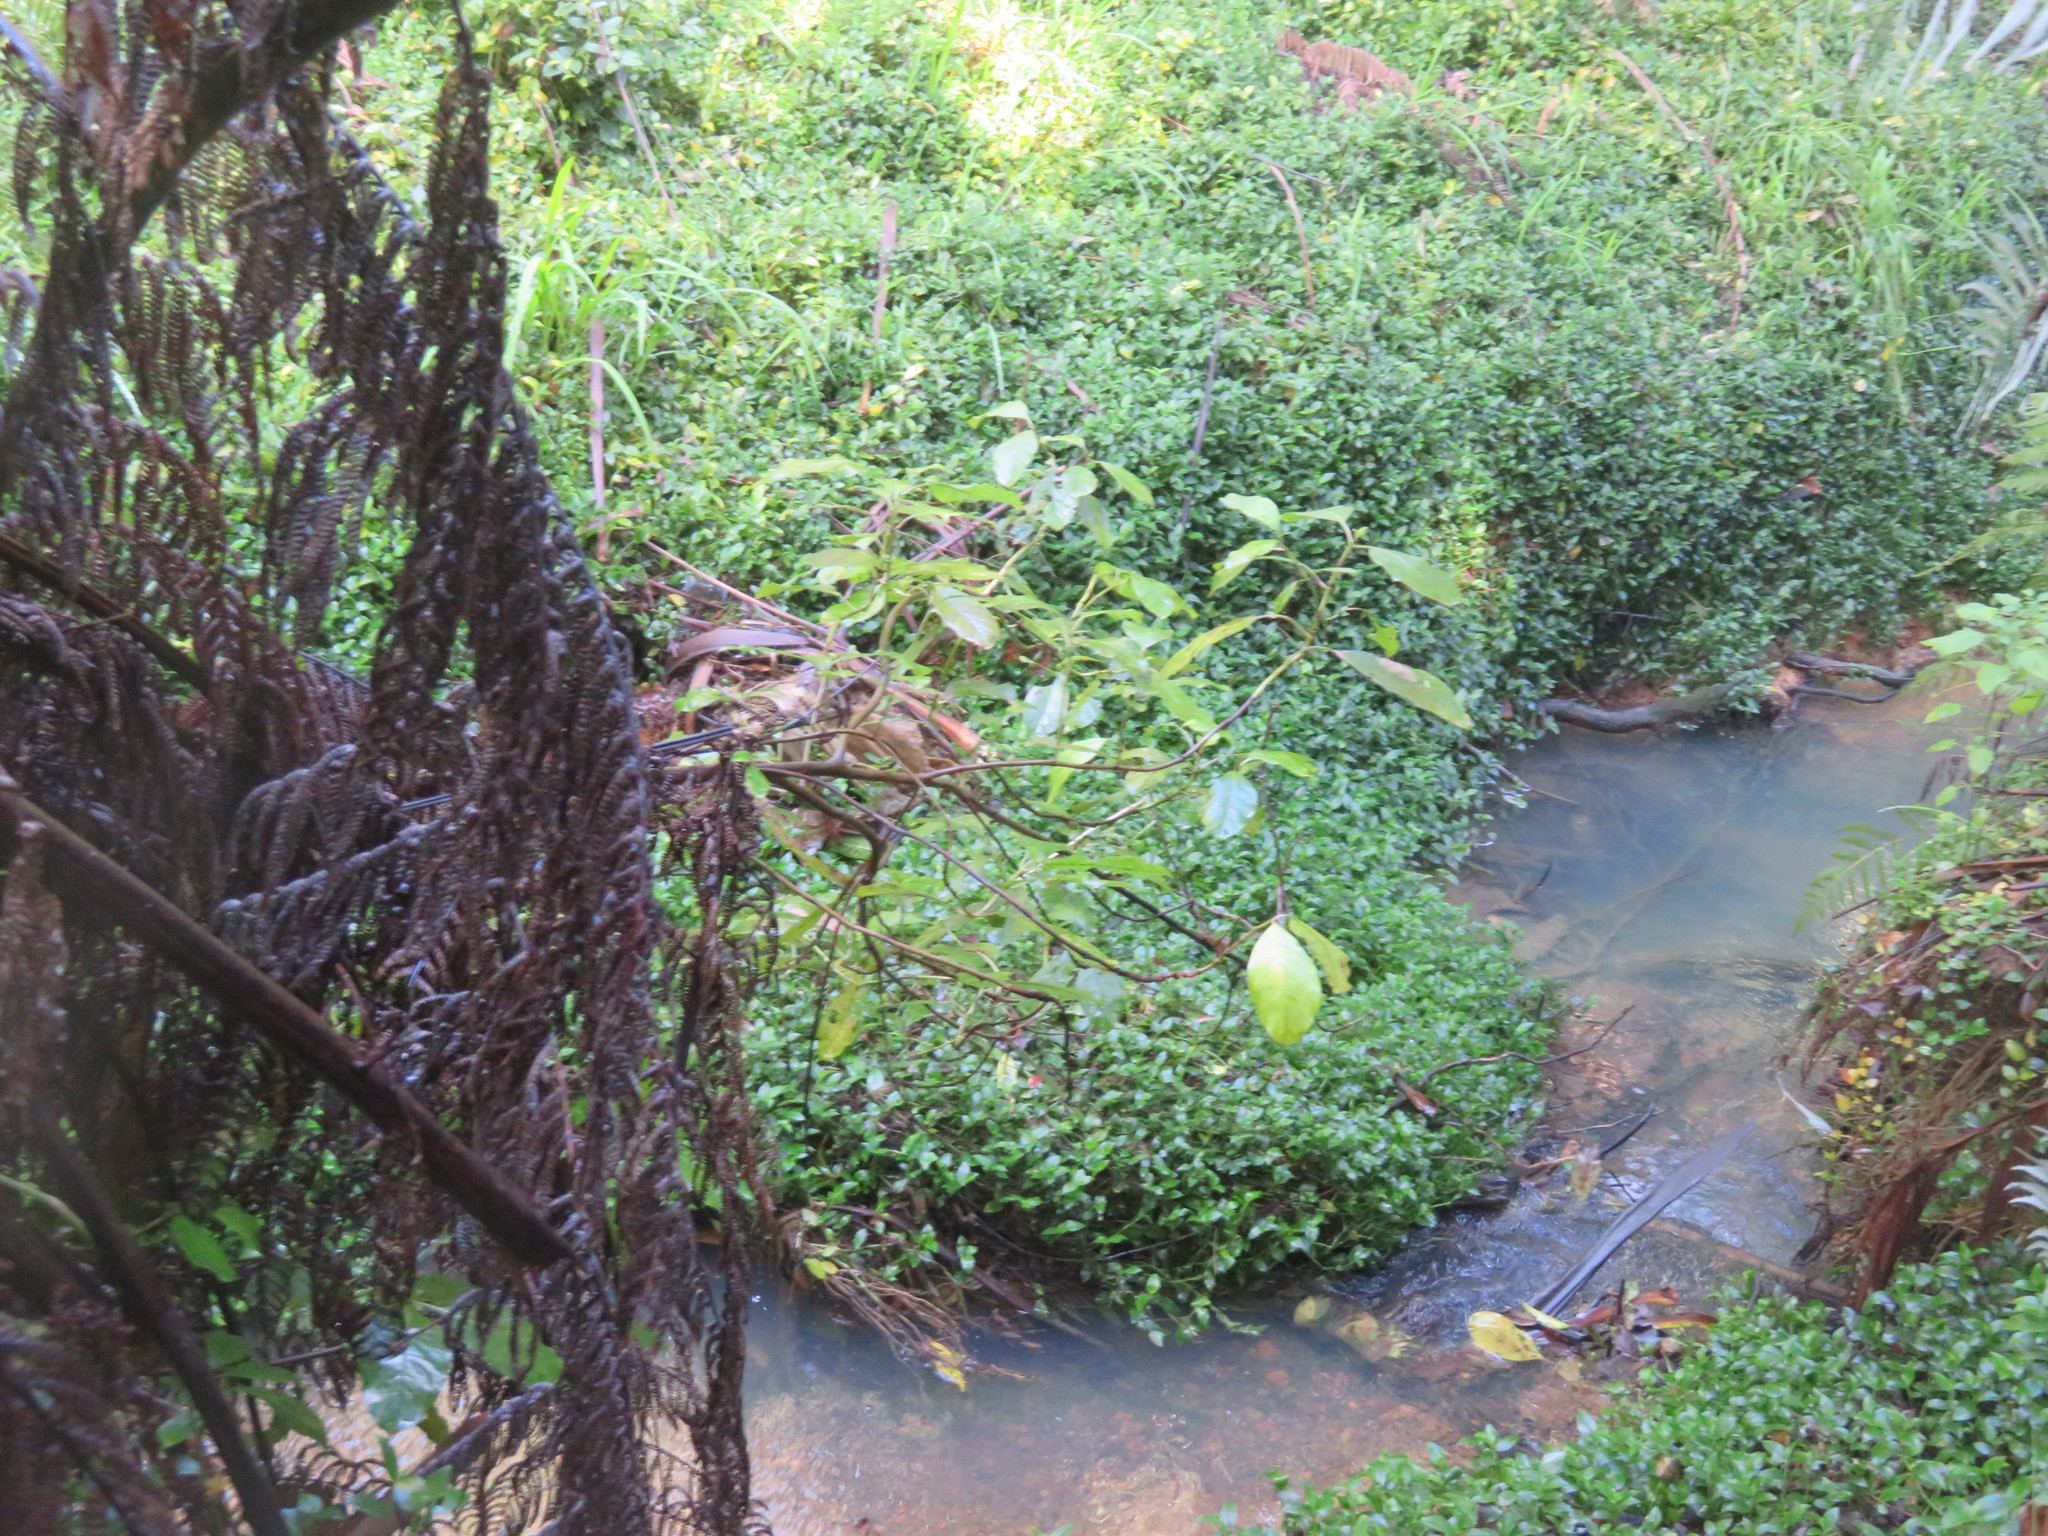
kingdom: Plantae
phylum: Tracheophyta
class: Liliopsida
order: Commelinales
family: Commelinaceae
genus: Tradescantia
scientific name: Tradescantia fluminensis
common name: Wandering-jew
